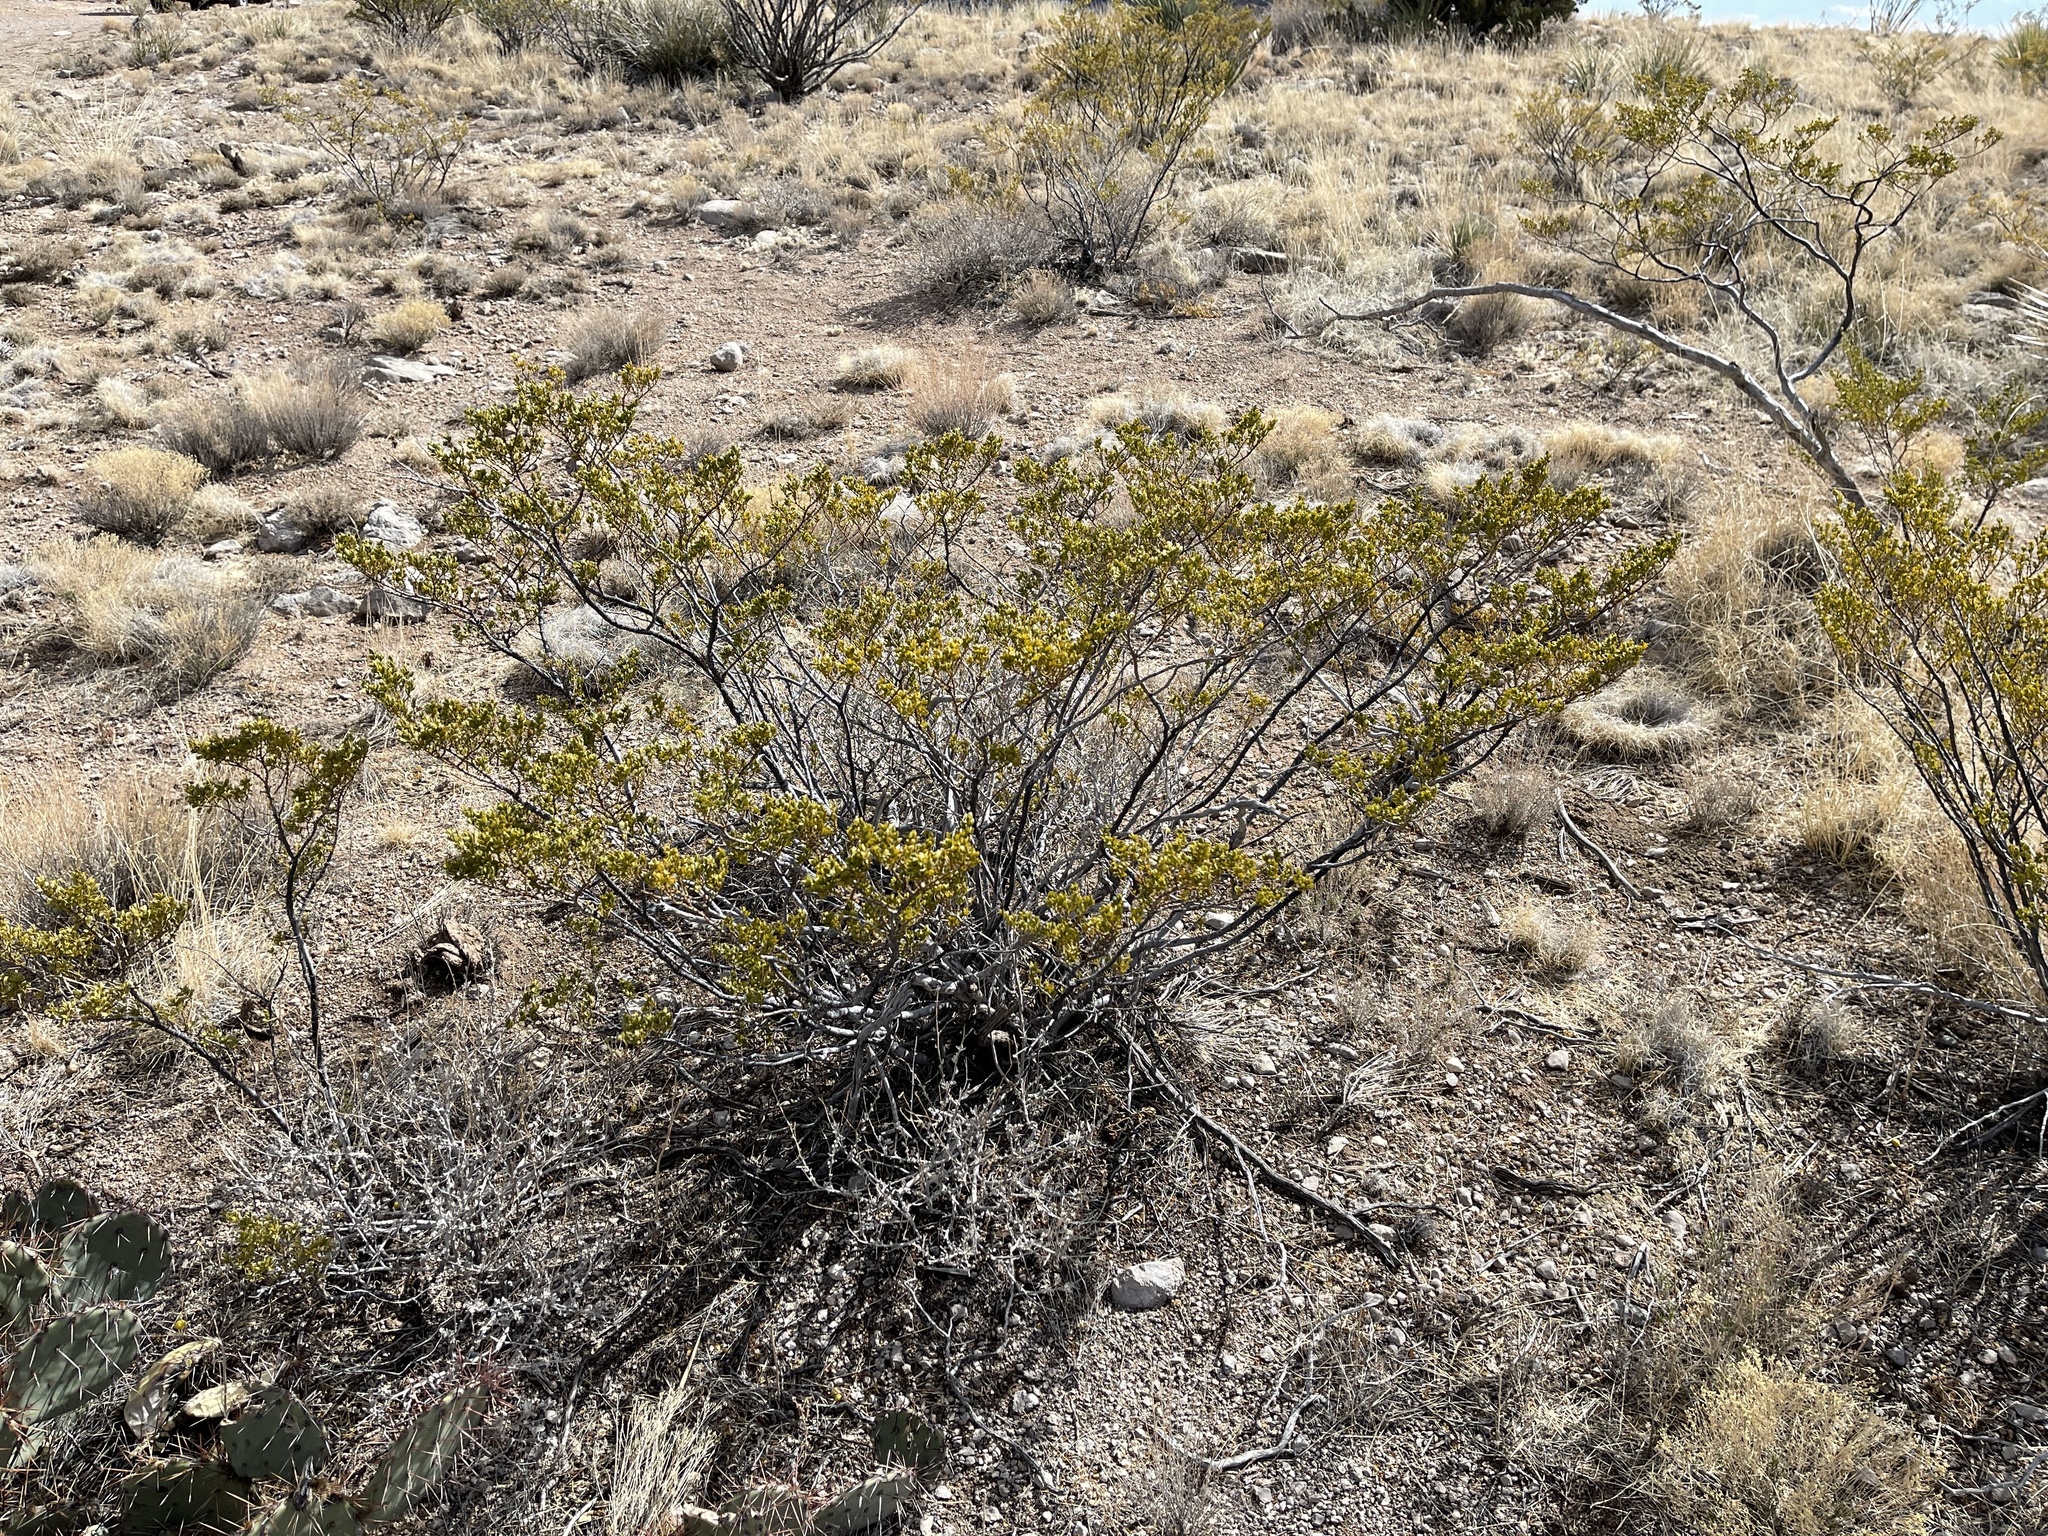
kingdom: Plantae
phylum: Tracheophyta
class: Magnoliopsida
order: Zygophyllales
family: Zygophyllaceae
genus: Larrea
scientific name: Larrea tridentata
